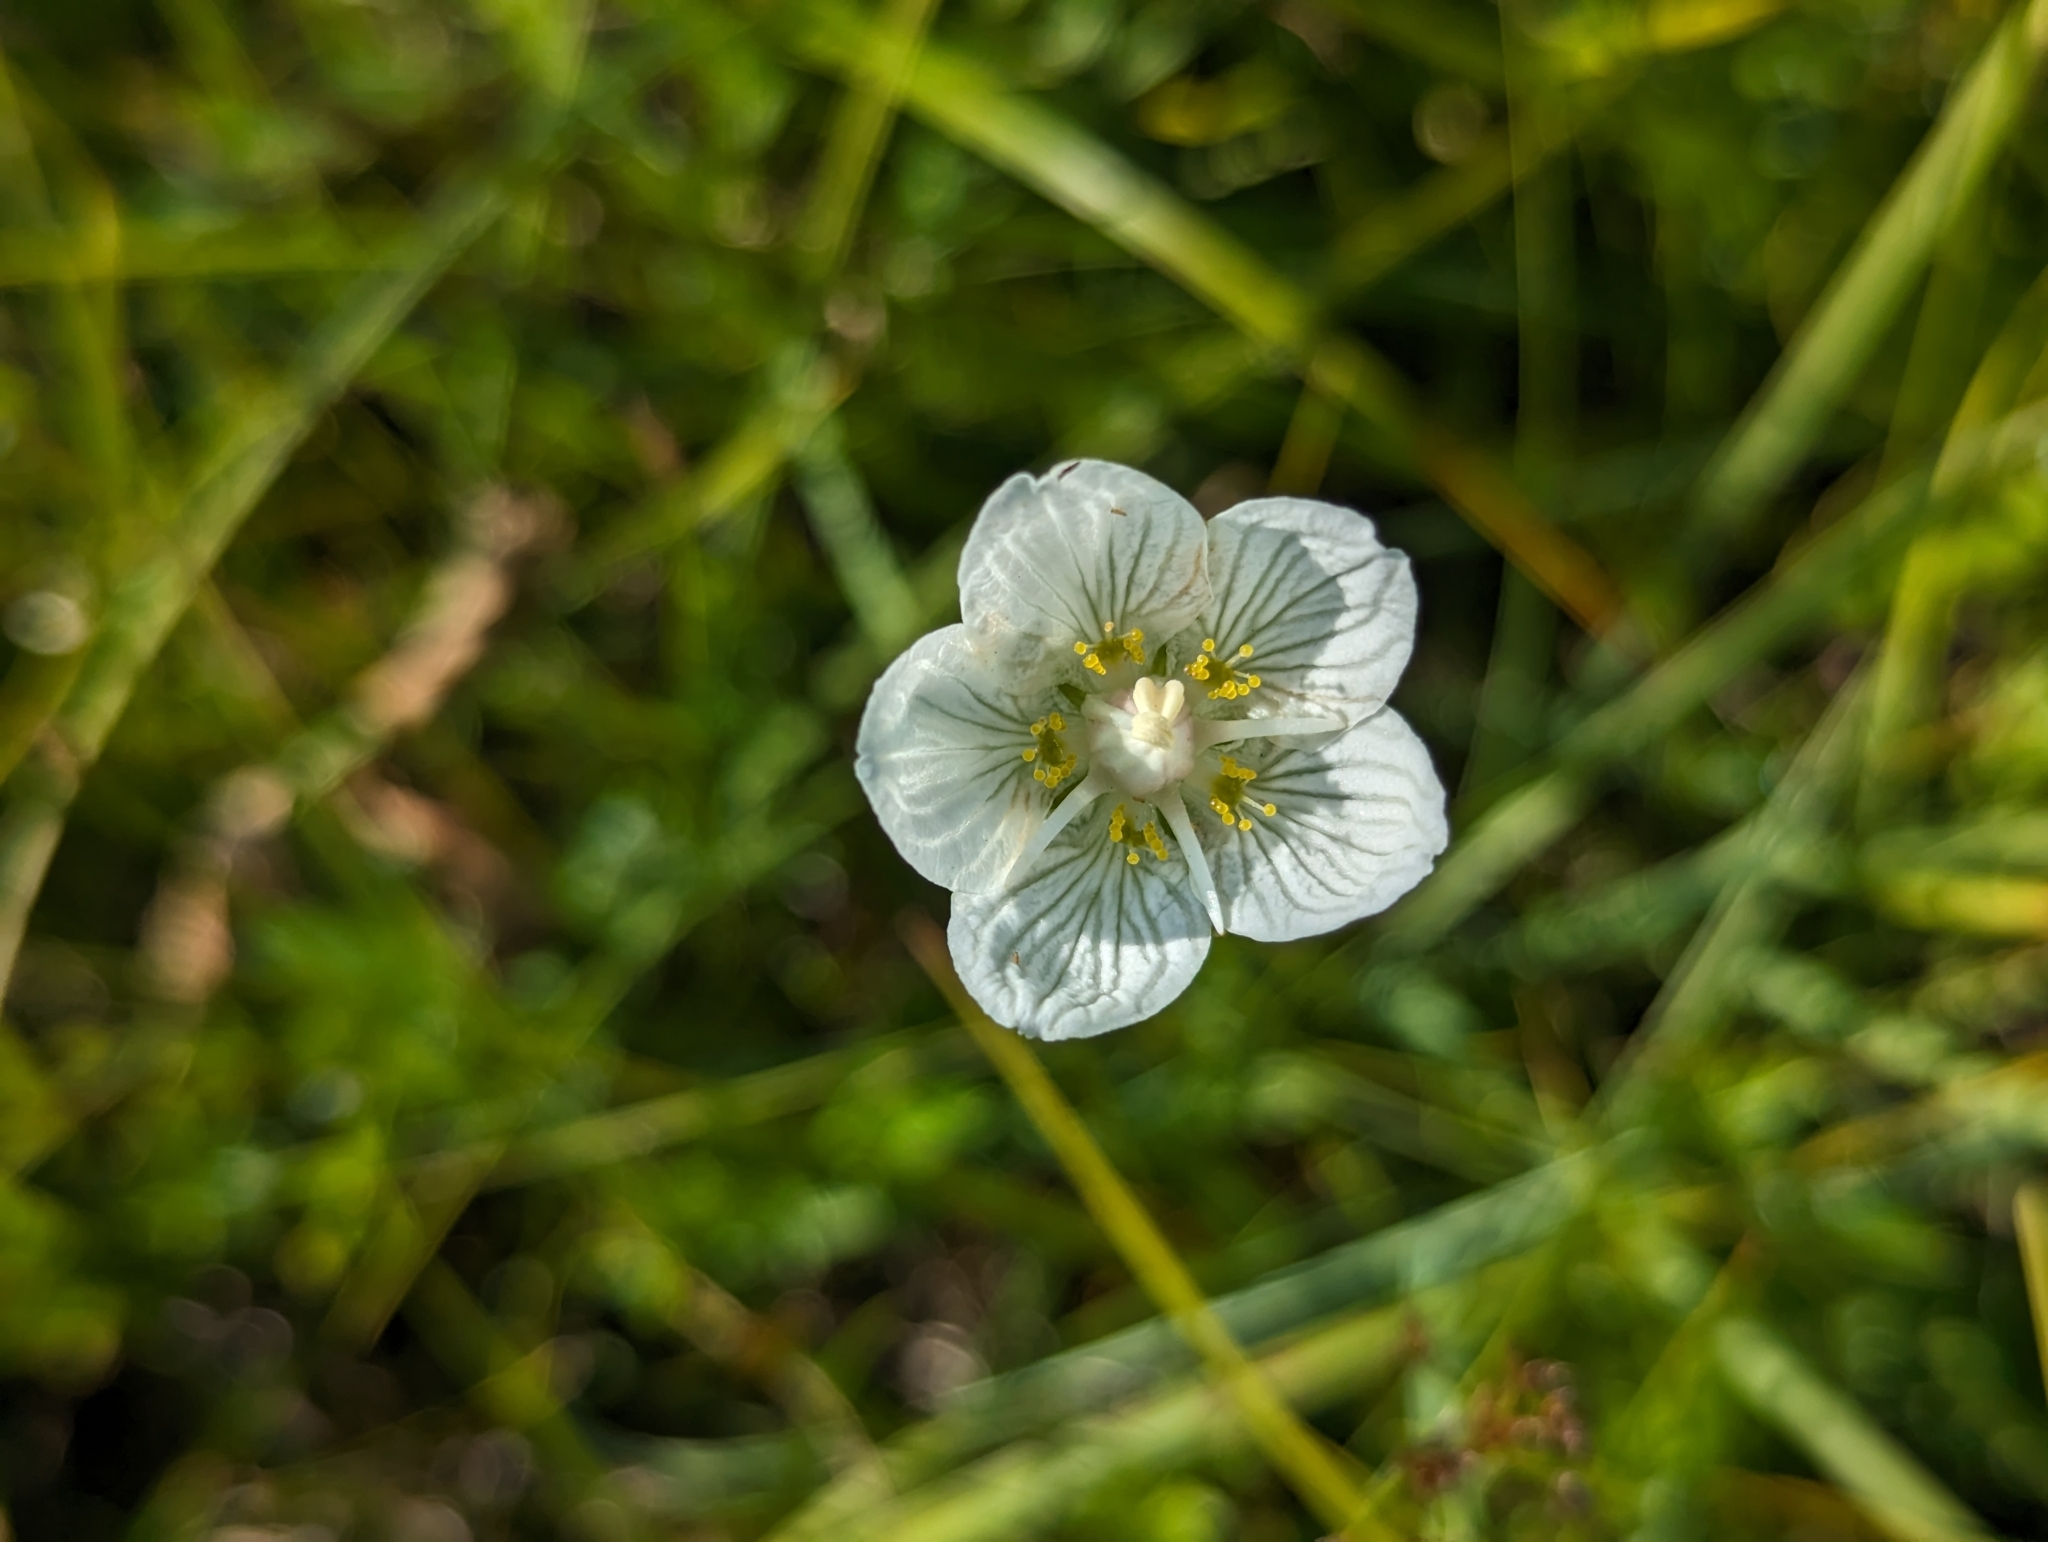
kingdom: Plantae
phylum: Tracheophyta
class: Magnoliopsida
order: Celastrales
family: Parnassiaceae
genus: Parnassia
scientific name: Parnassia palustris
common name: Grass-of-parnassus
